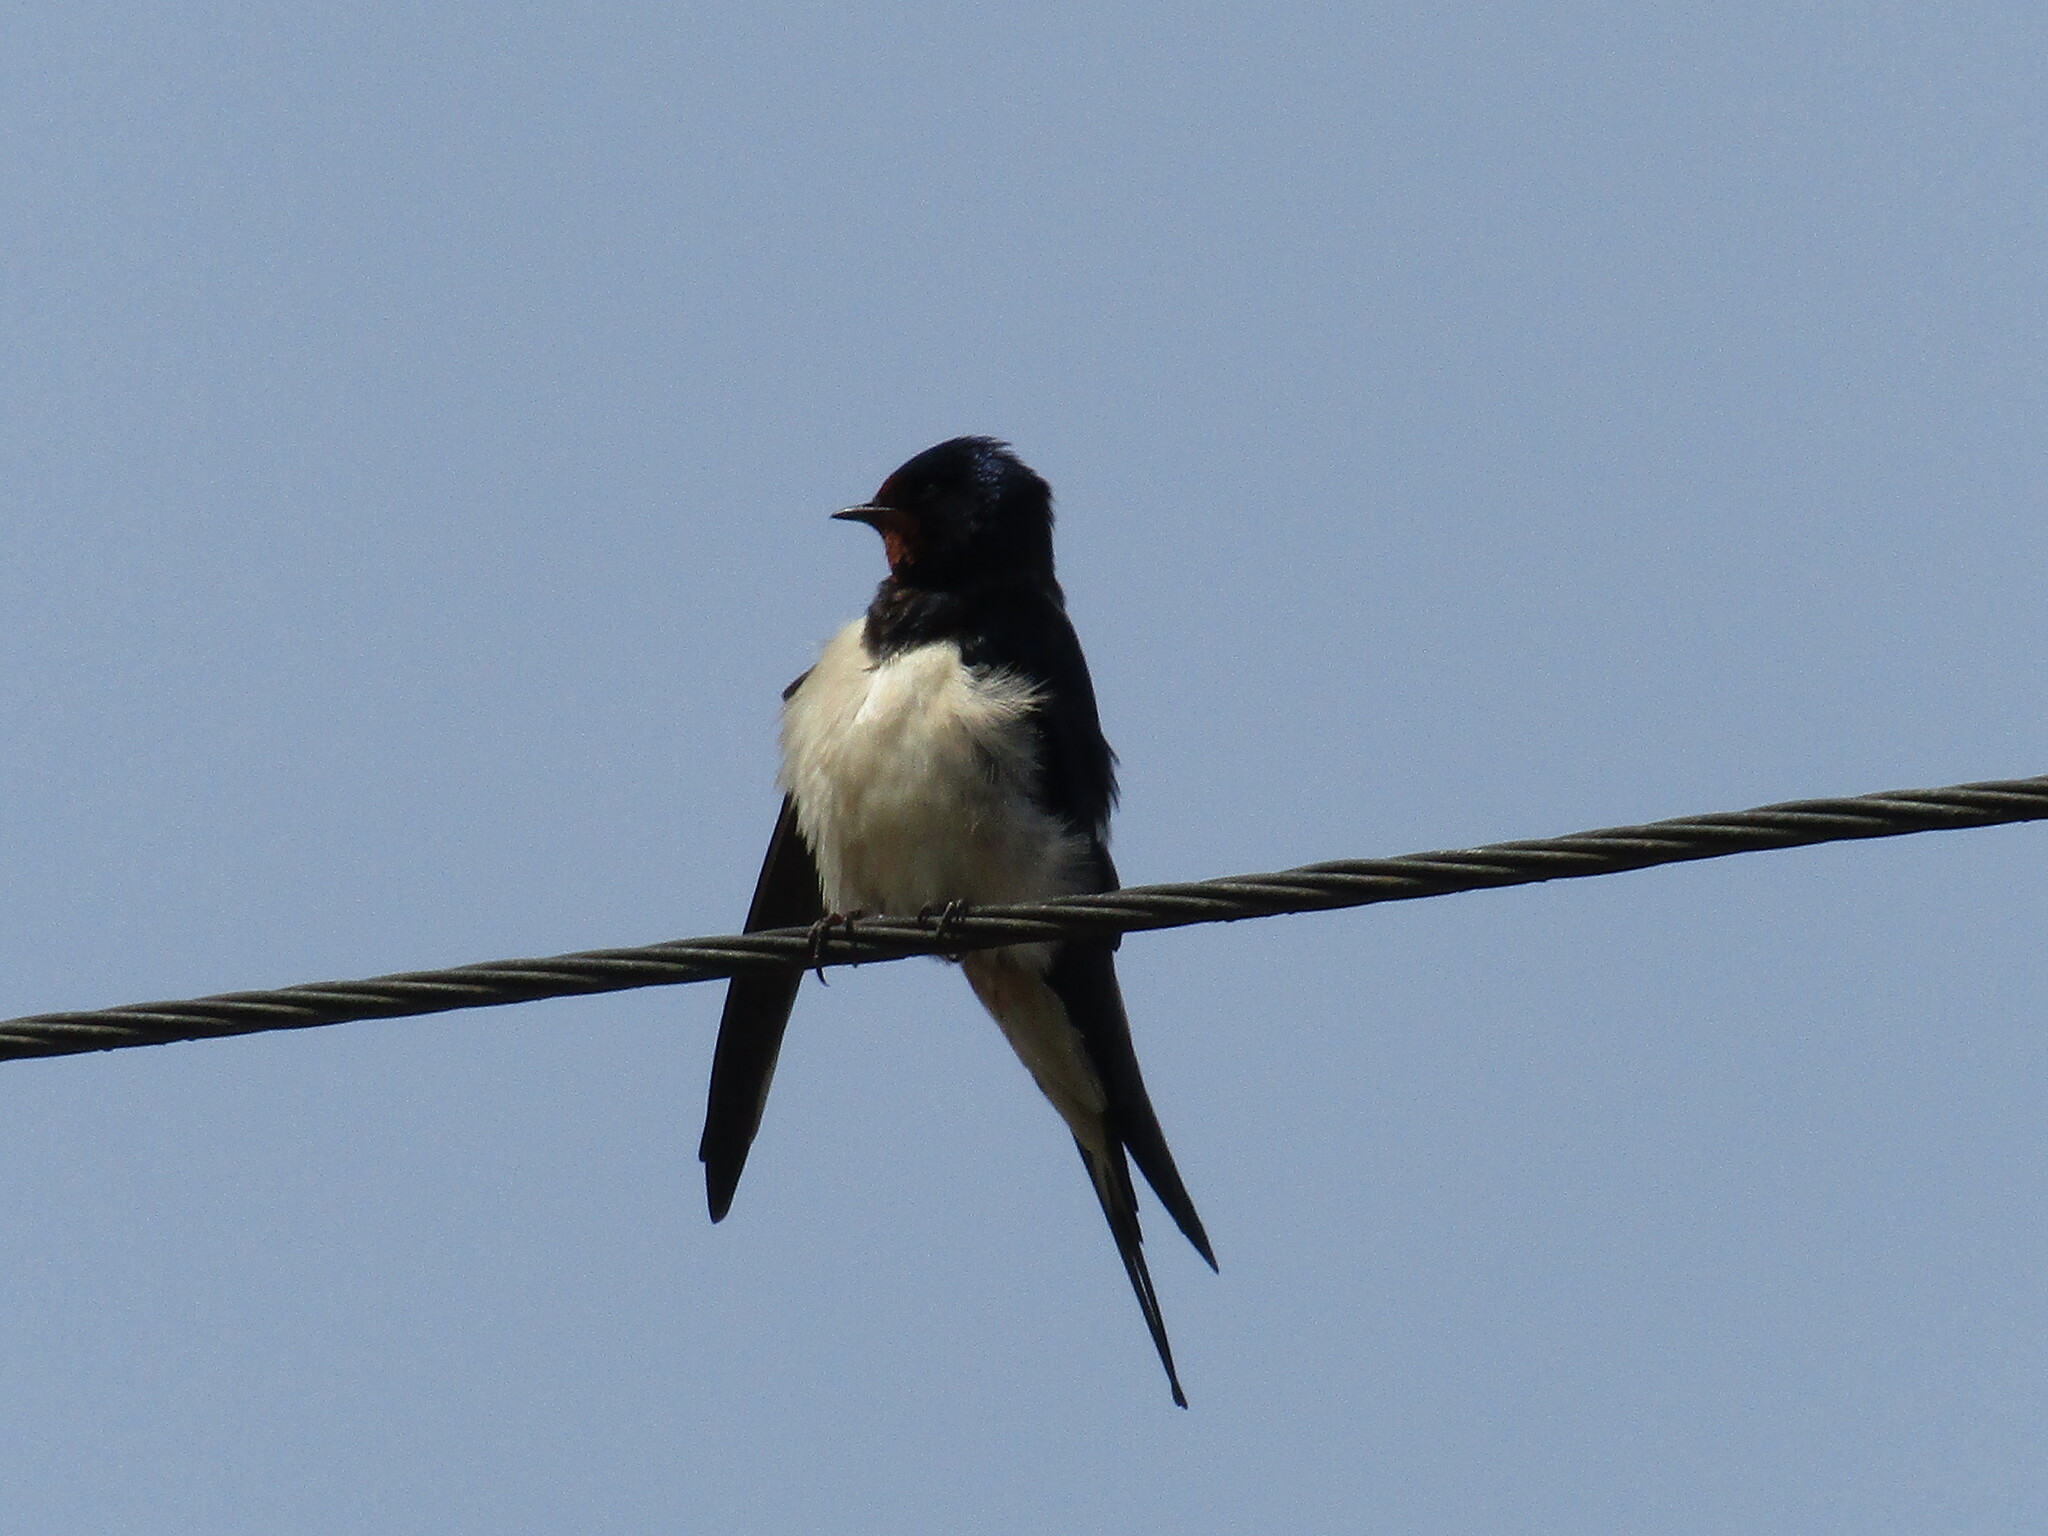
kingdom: Animalia
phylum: Chordata
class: Aves
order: Passeriformes
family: Hirundinidae
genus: Hirundo
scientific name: Hirundo rustica
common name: Barn swallow
